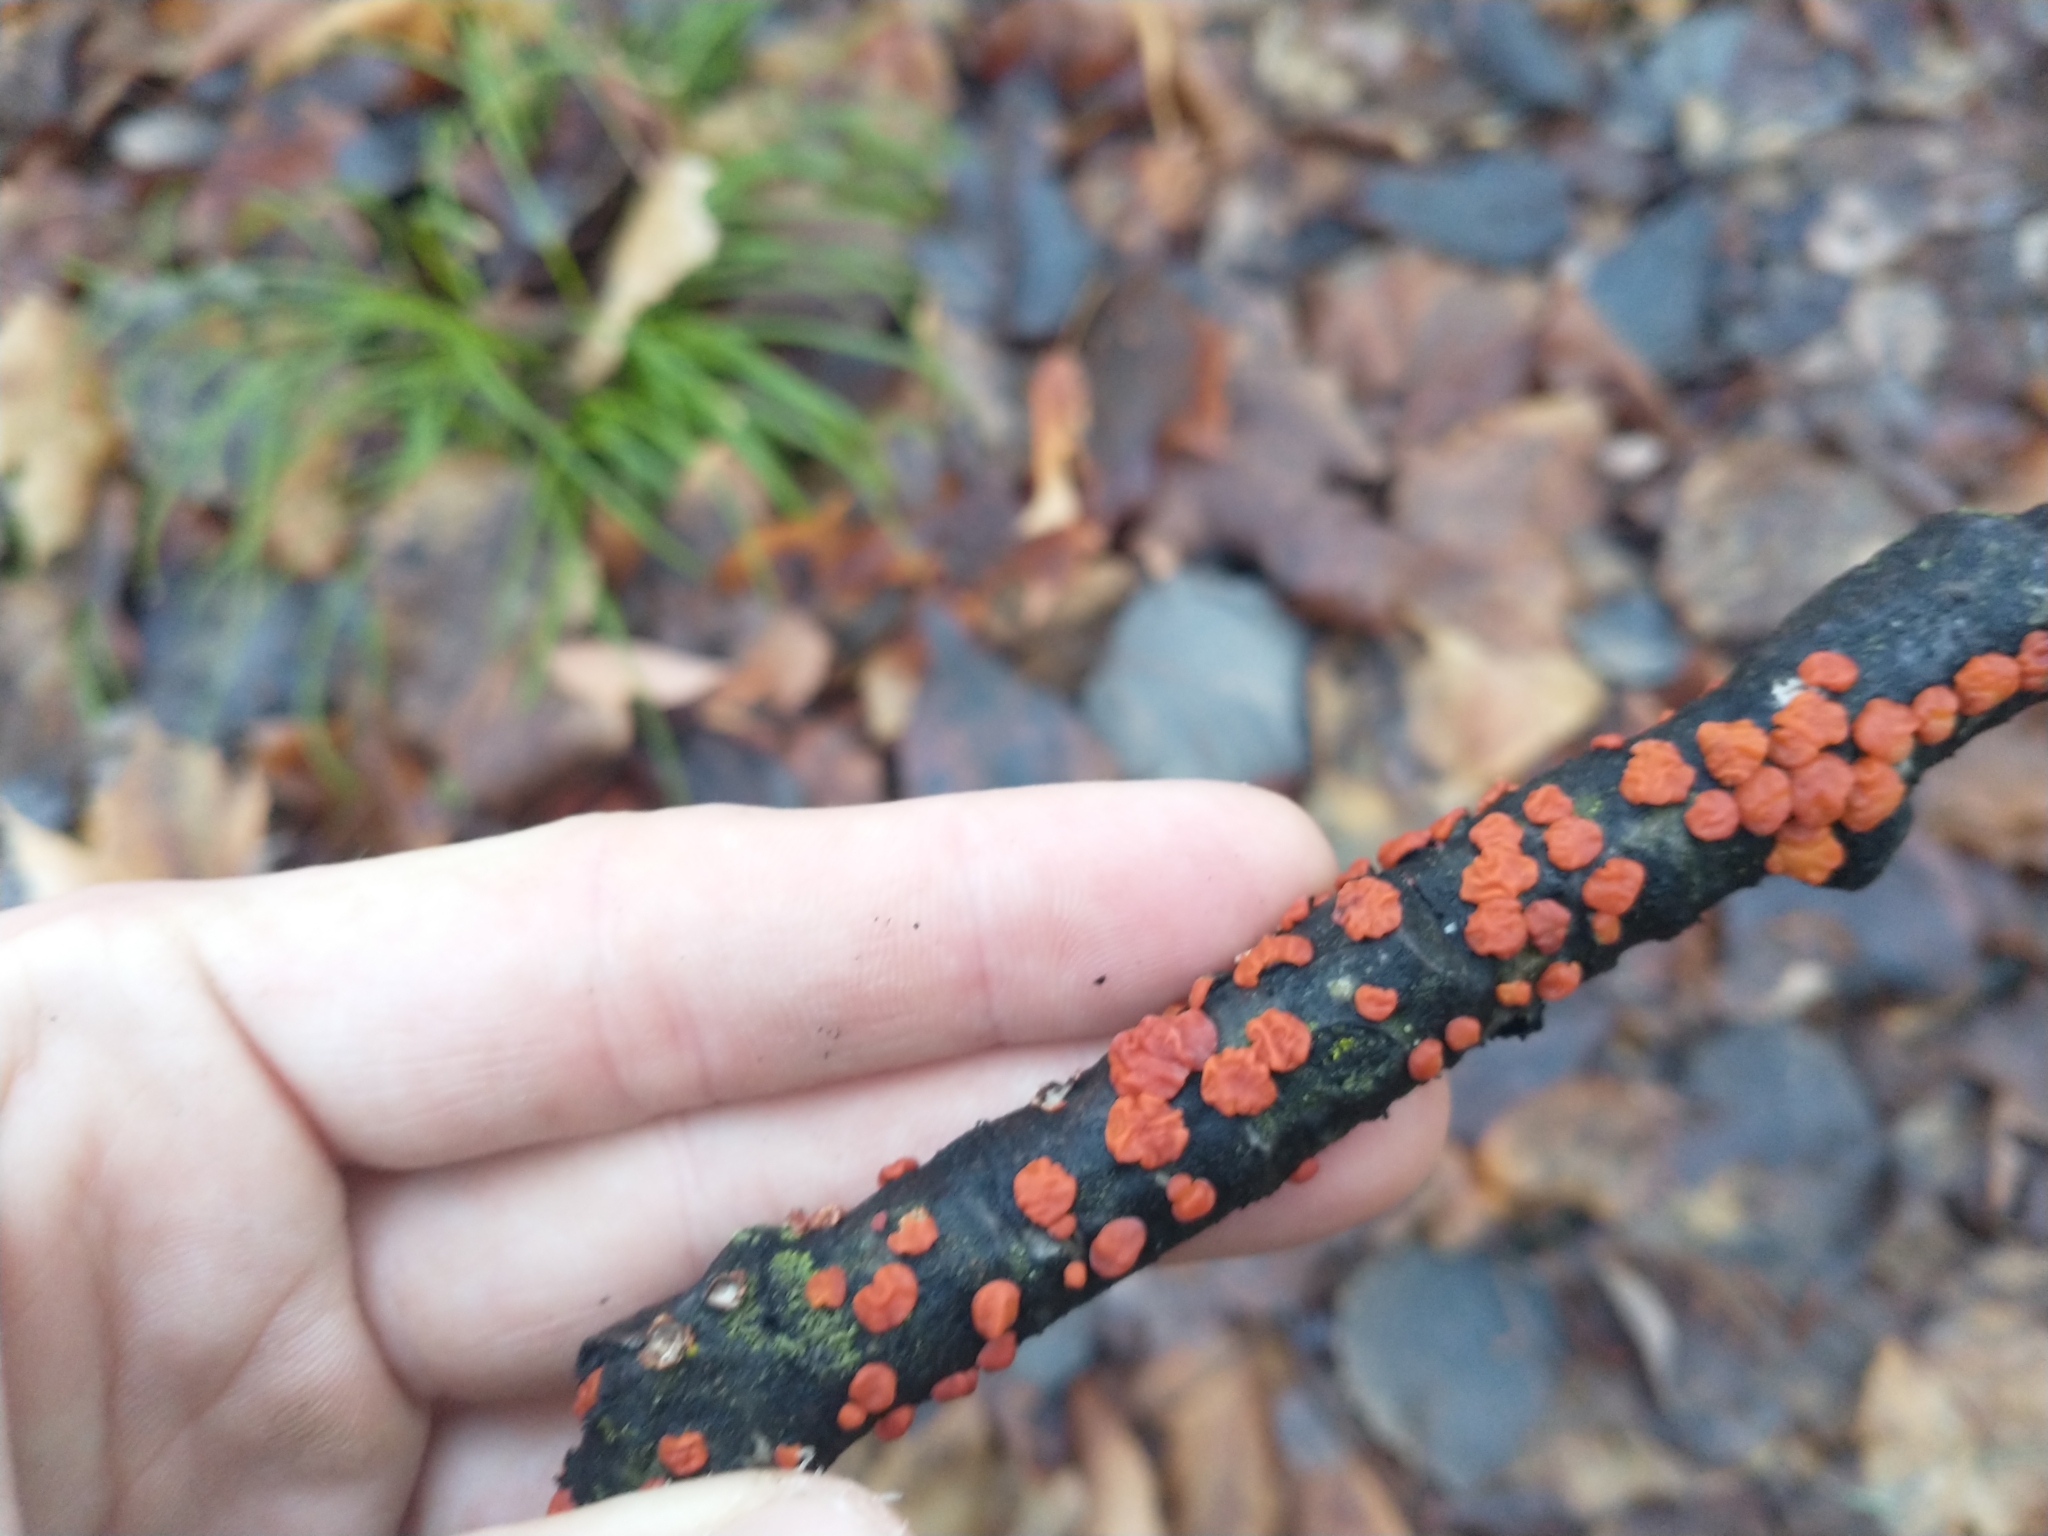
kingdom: Fungi
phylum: Basidiomycota
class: Agaricomycetes
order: Russulales
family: Peniophoraceae
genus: Peniophora
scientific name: Peniophora rufa
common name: Red tree brain fungus
